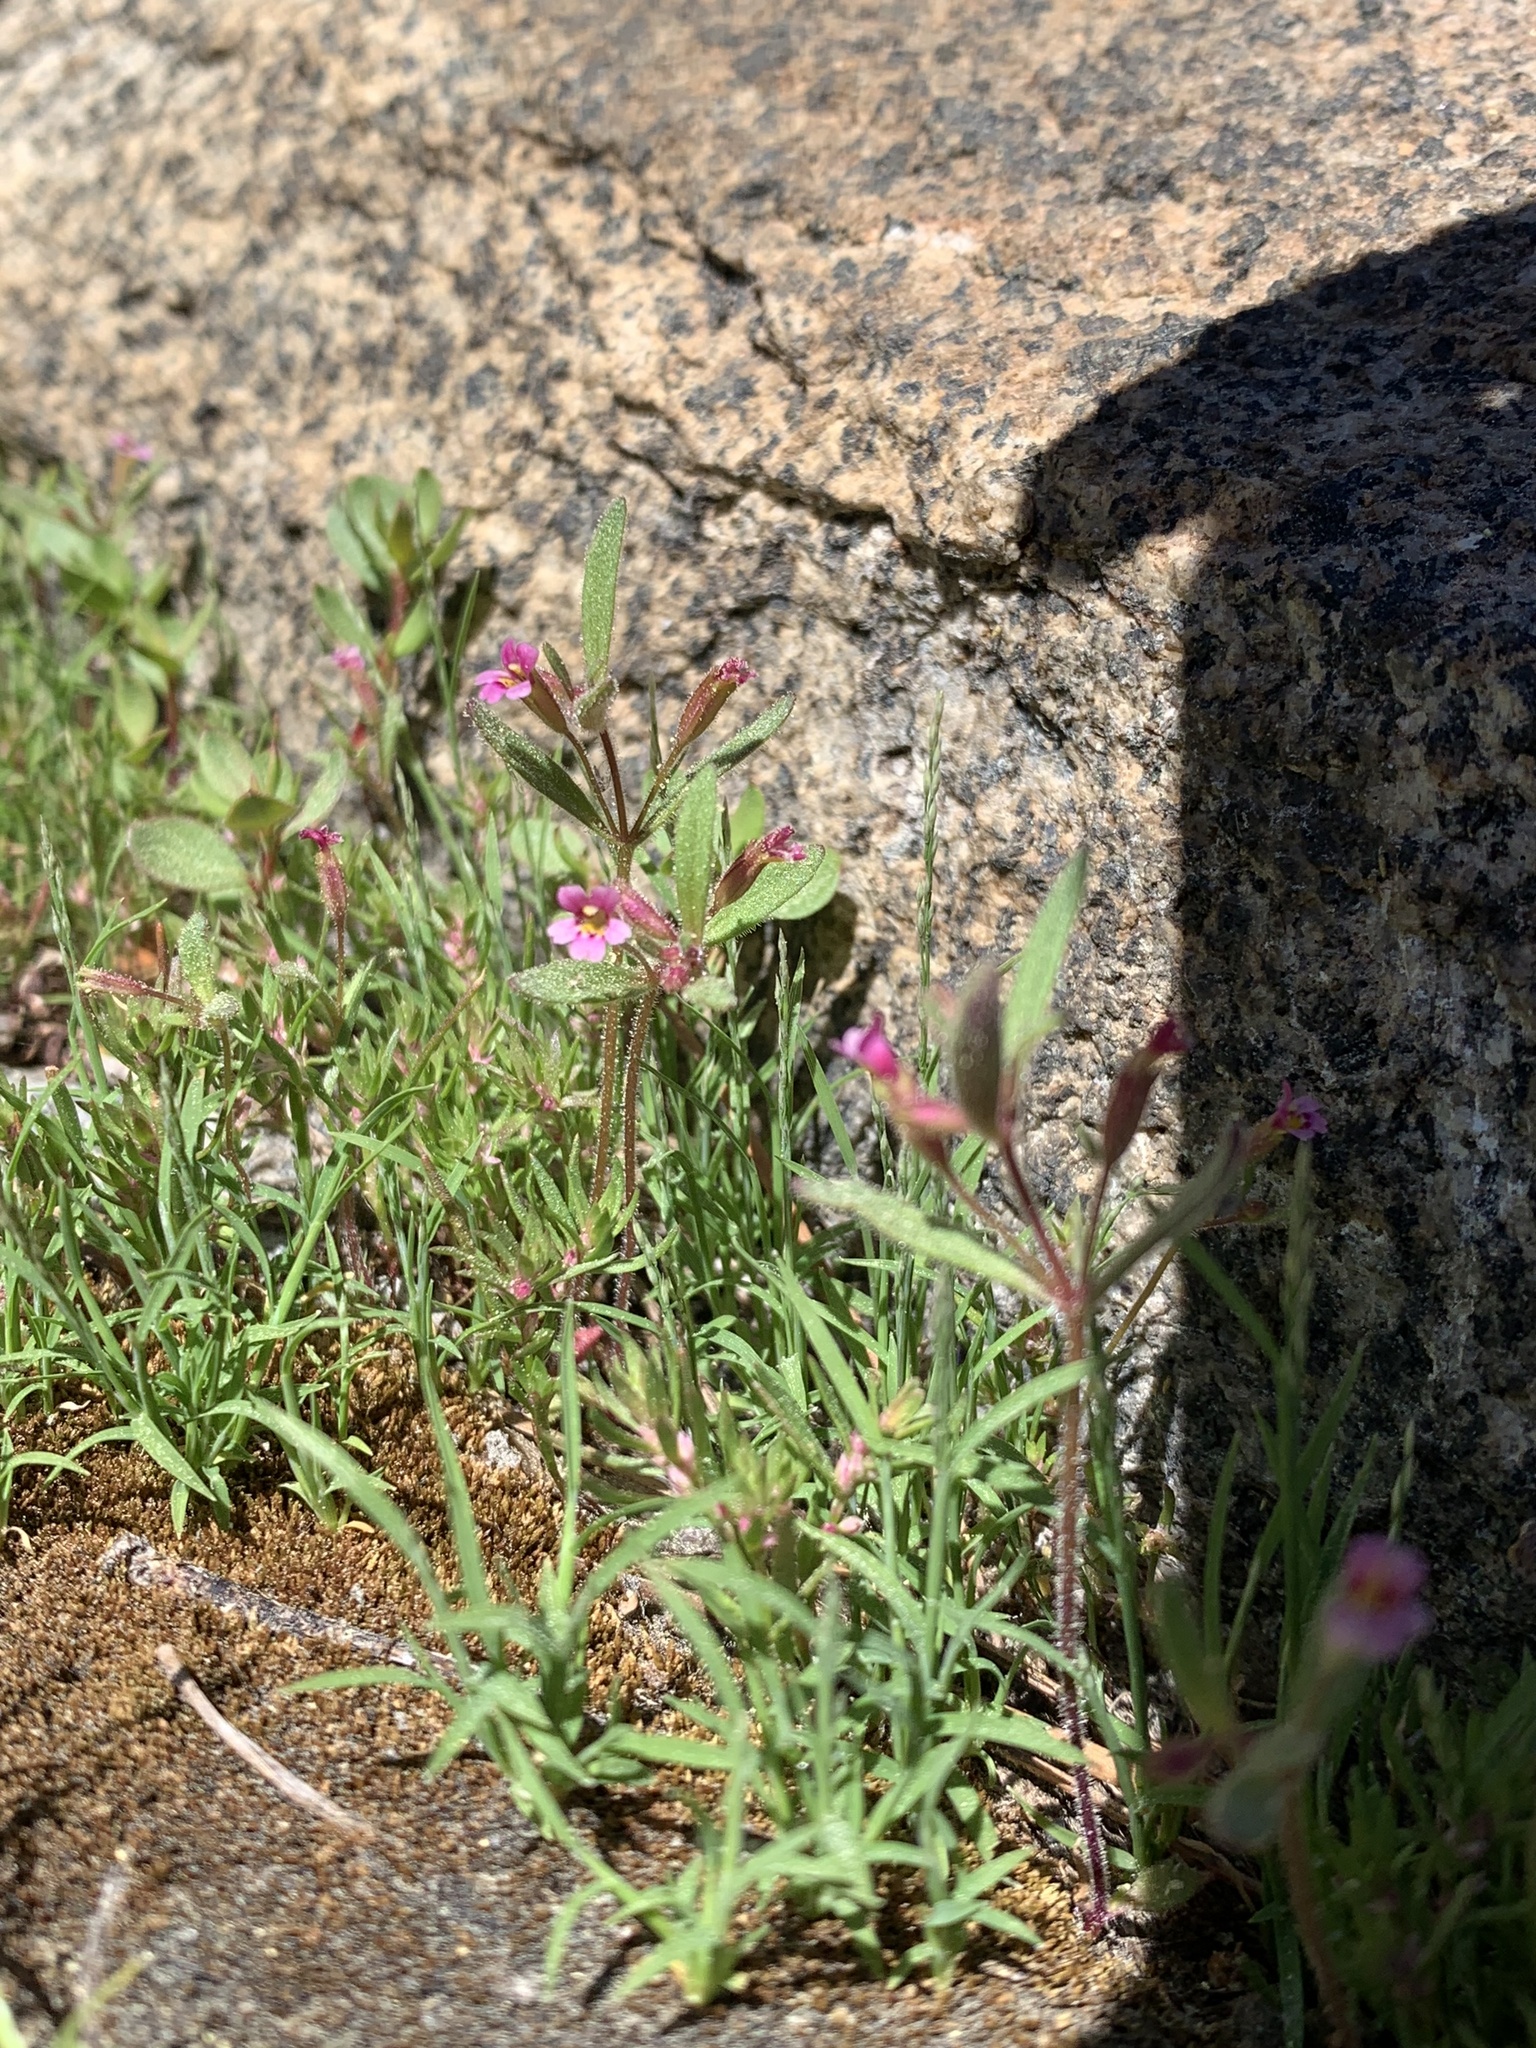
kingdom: Plantae
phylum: Tracheophyta
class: Magnoliopsida
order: Lamiales
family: Phrymaceae
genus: Erythranthe
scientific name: Erythranthe breweri
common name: Brewer's monkeyflower
